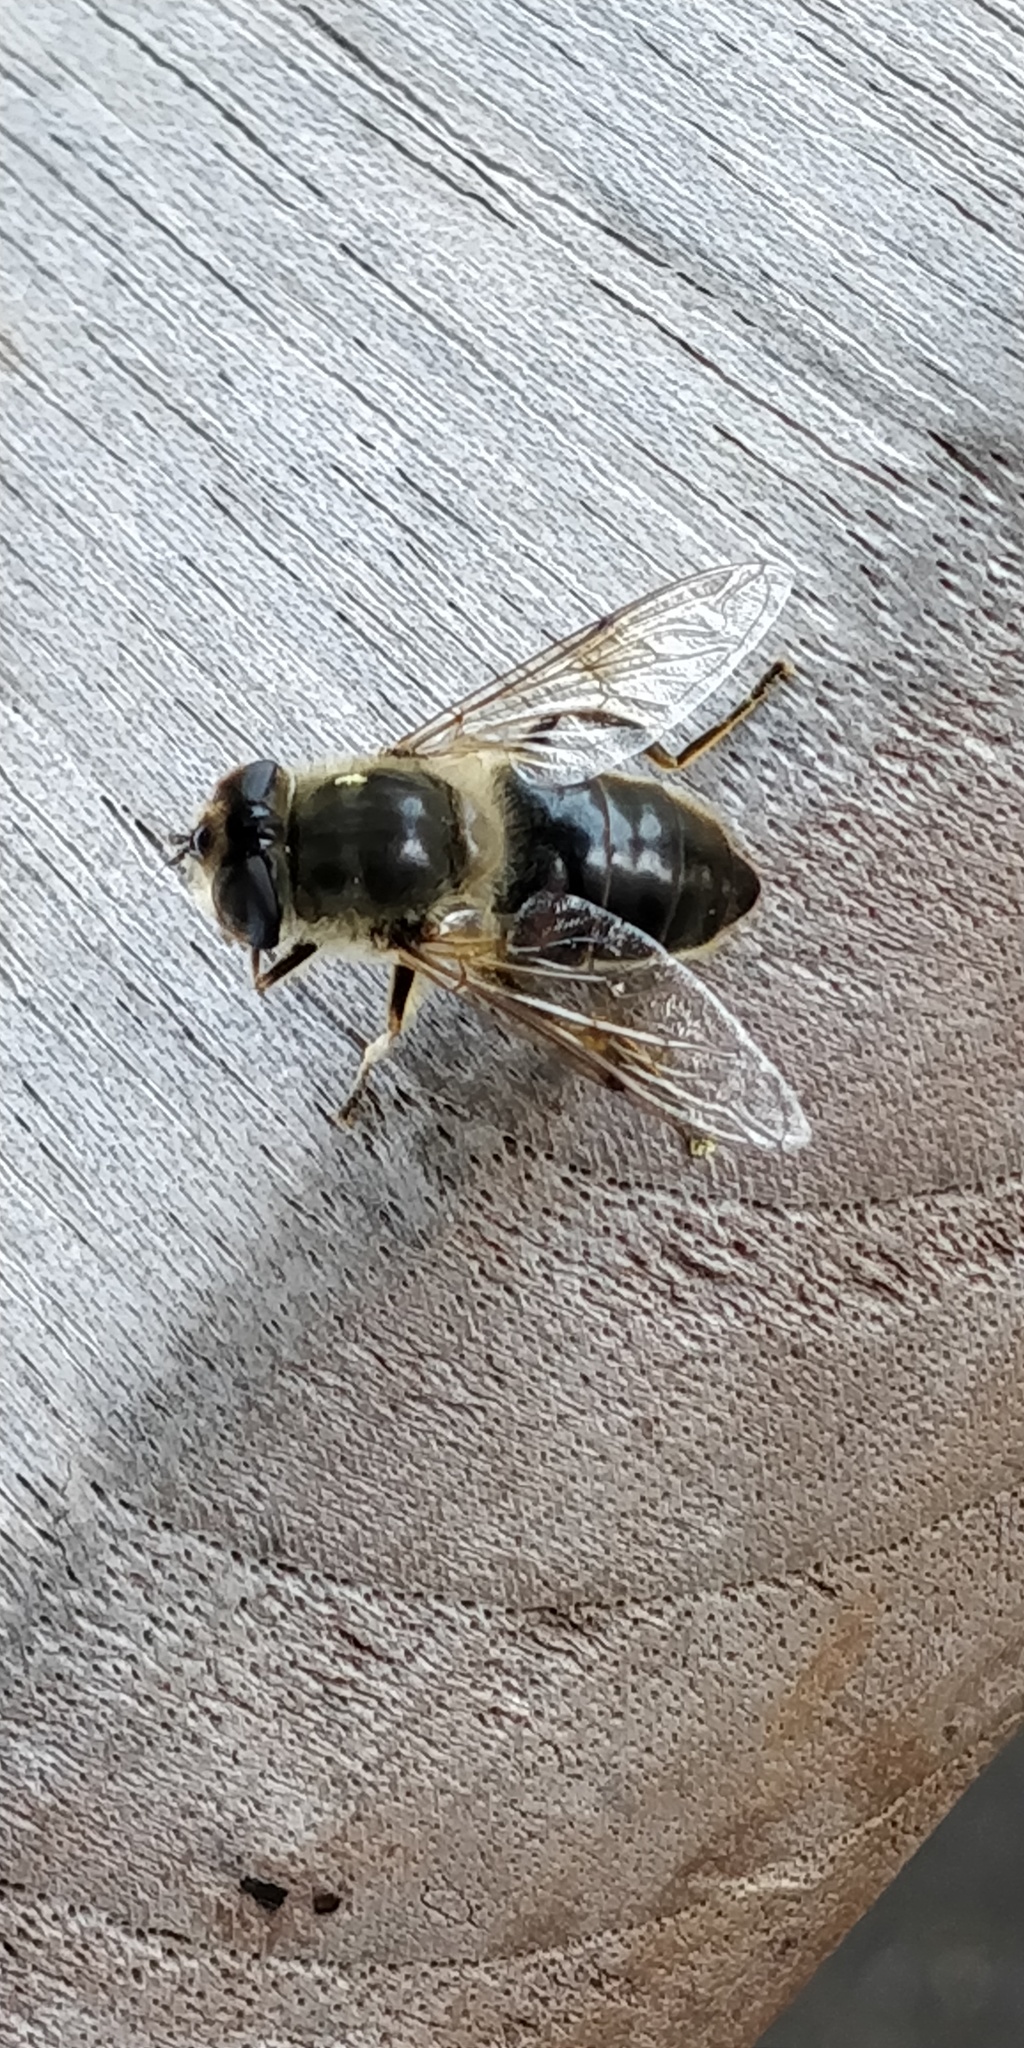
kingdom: Animalia
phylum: Arthropoda
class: Insecta
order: Diptera
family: Syrphidae
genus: Eristalis
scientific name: Eristalis tenax
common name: Drone fly
